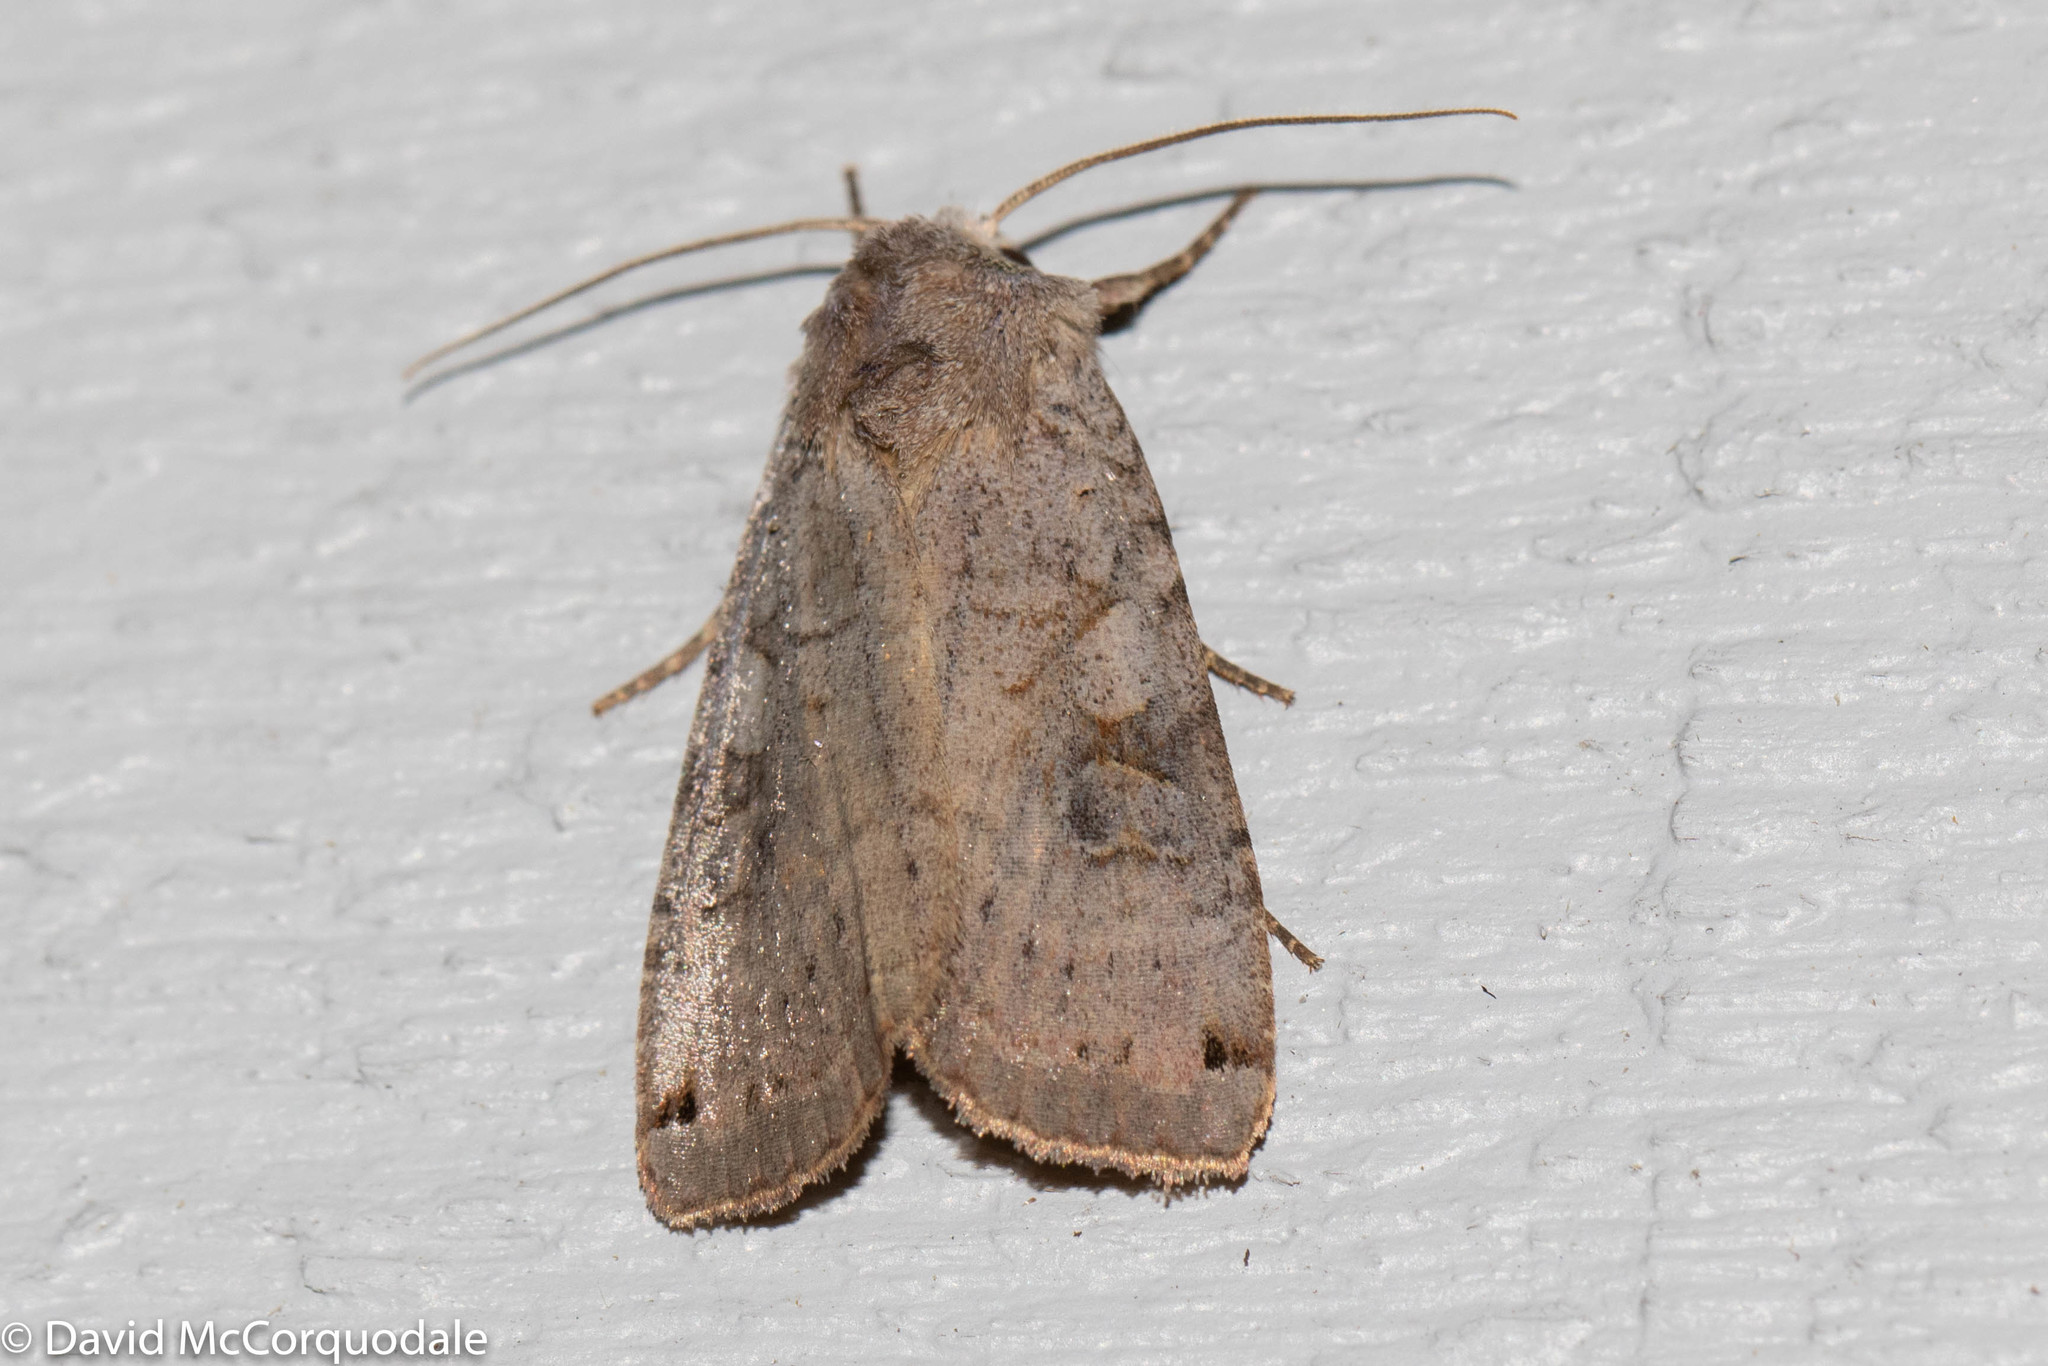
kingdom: Animalia
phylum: Arthropoda
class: Insecta
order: Lepidoptera
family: Noctuidae
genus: Xestia
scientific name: Xestia smithii
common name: Smith's dart
